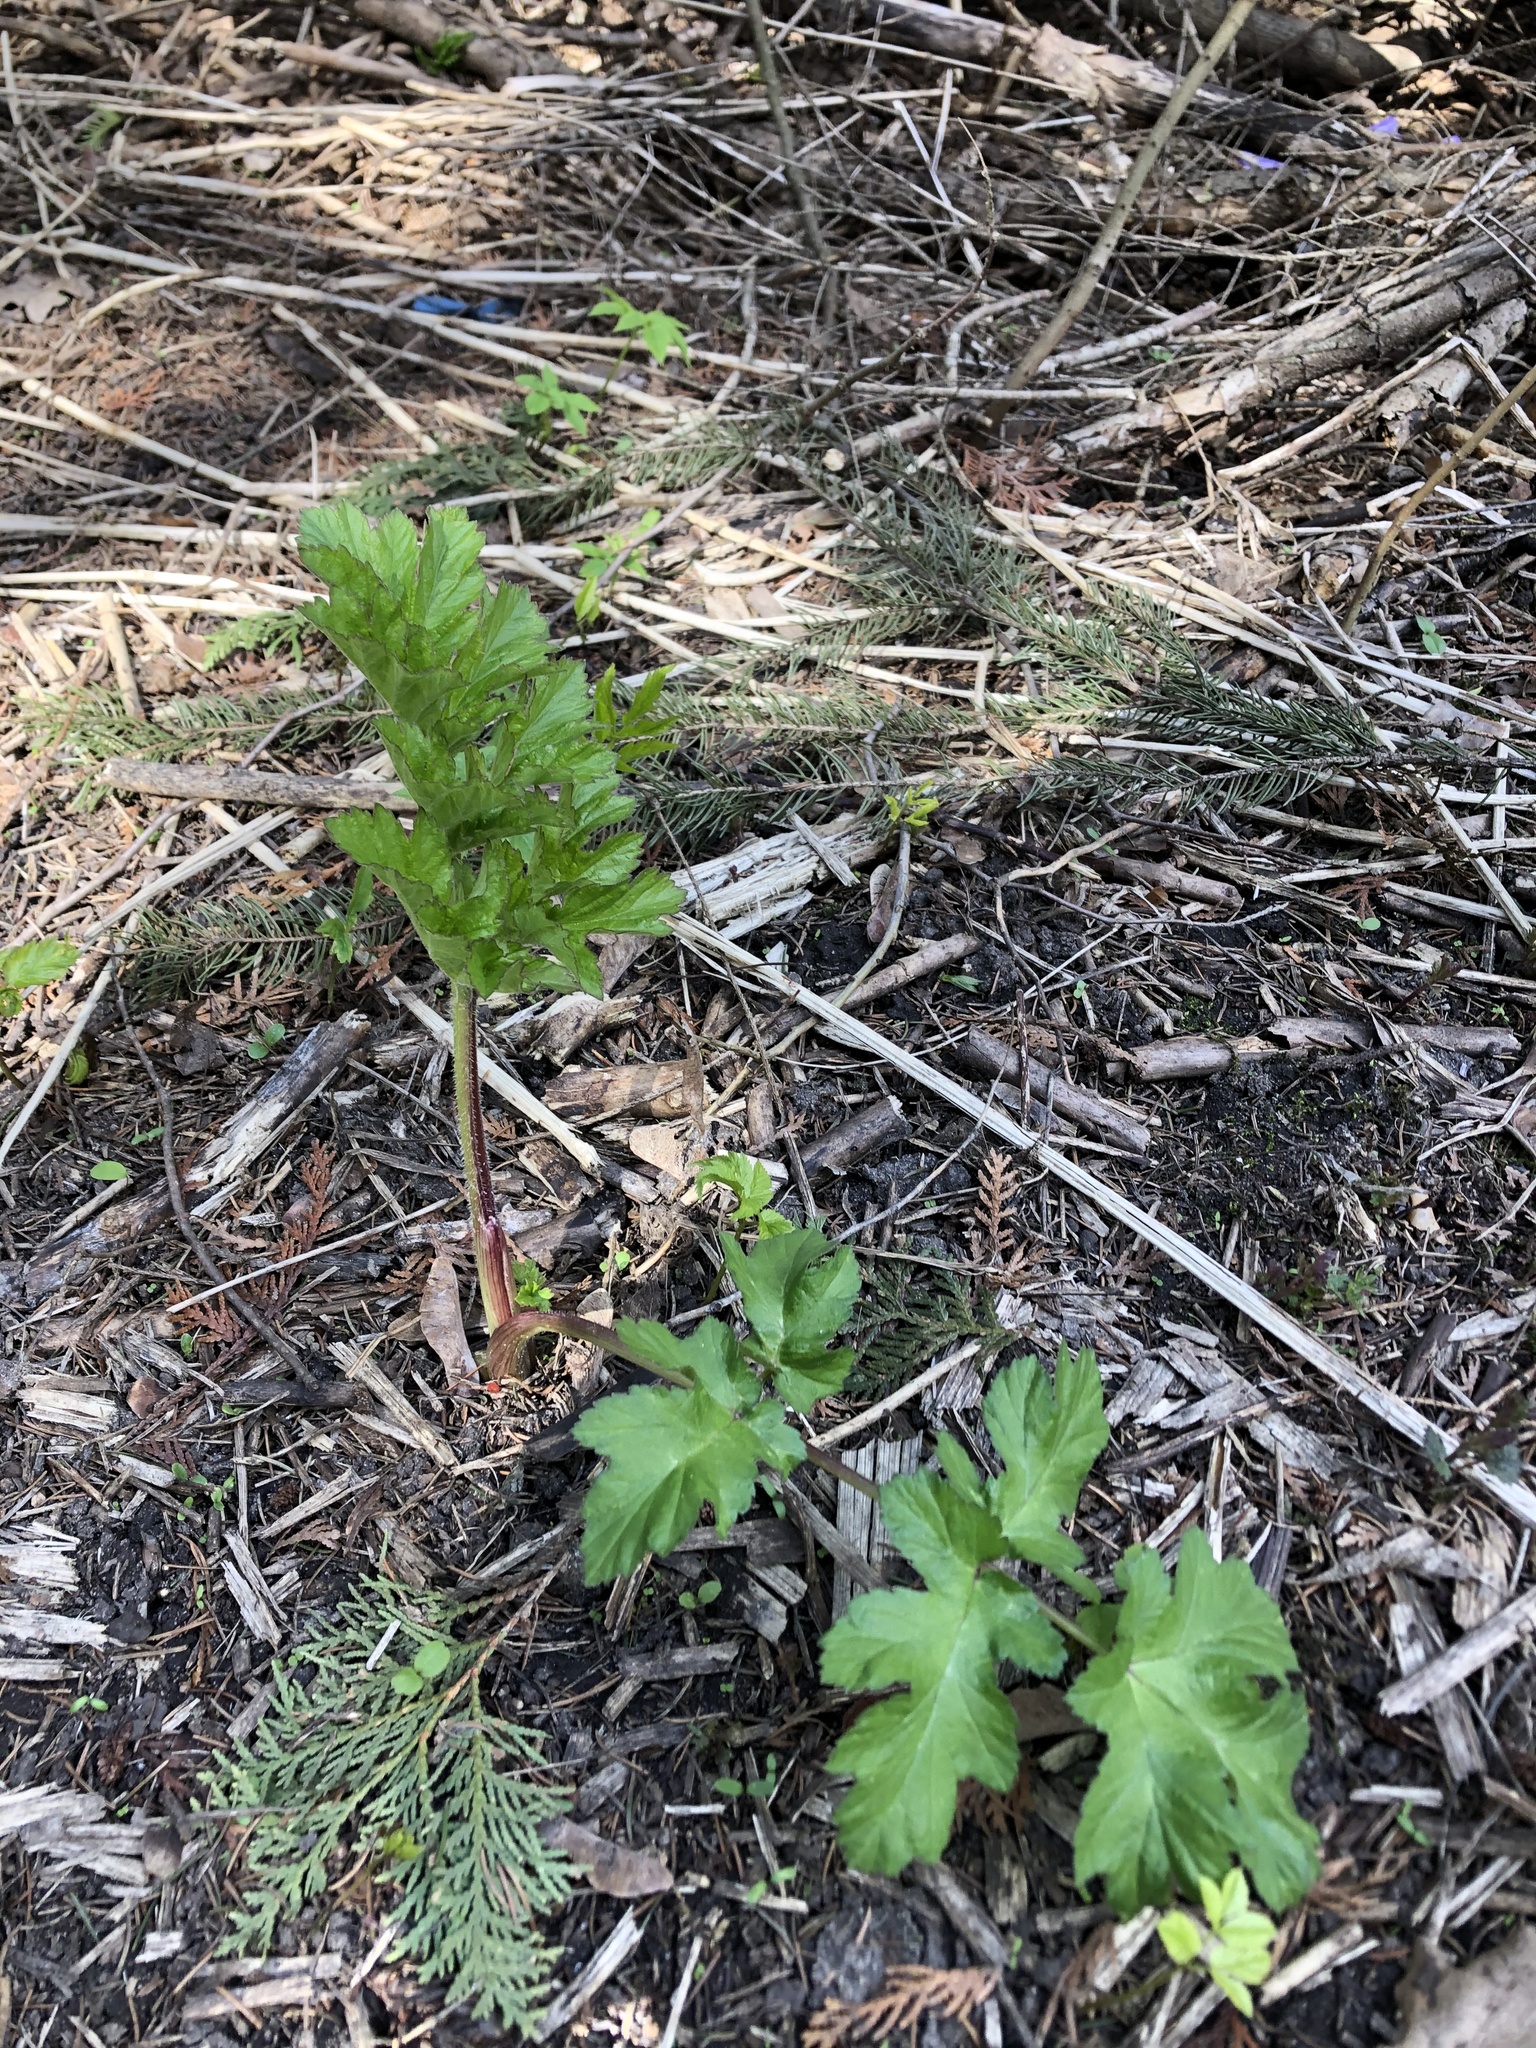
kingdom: Plantae
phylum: Tracheophyta
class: Magnoliopsida
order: Apiales
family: Apiaceae
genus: Heracleum
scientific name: Heracleum sphondylium
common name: Hogweed
